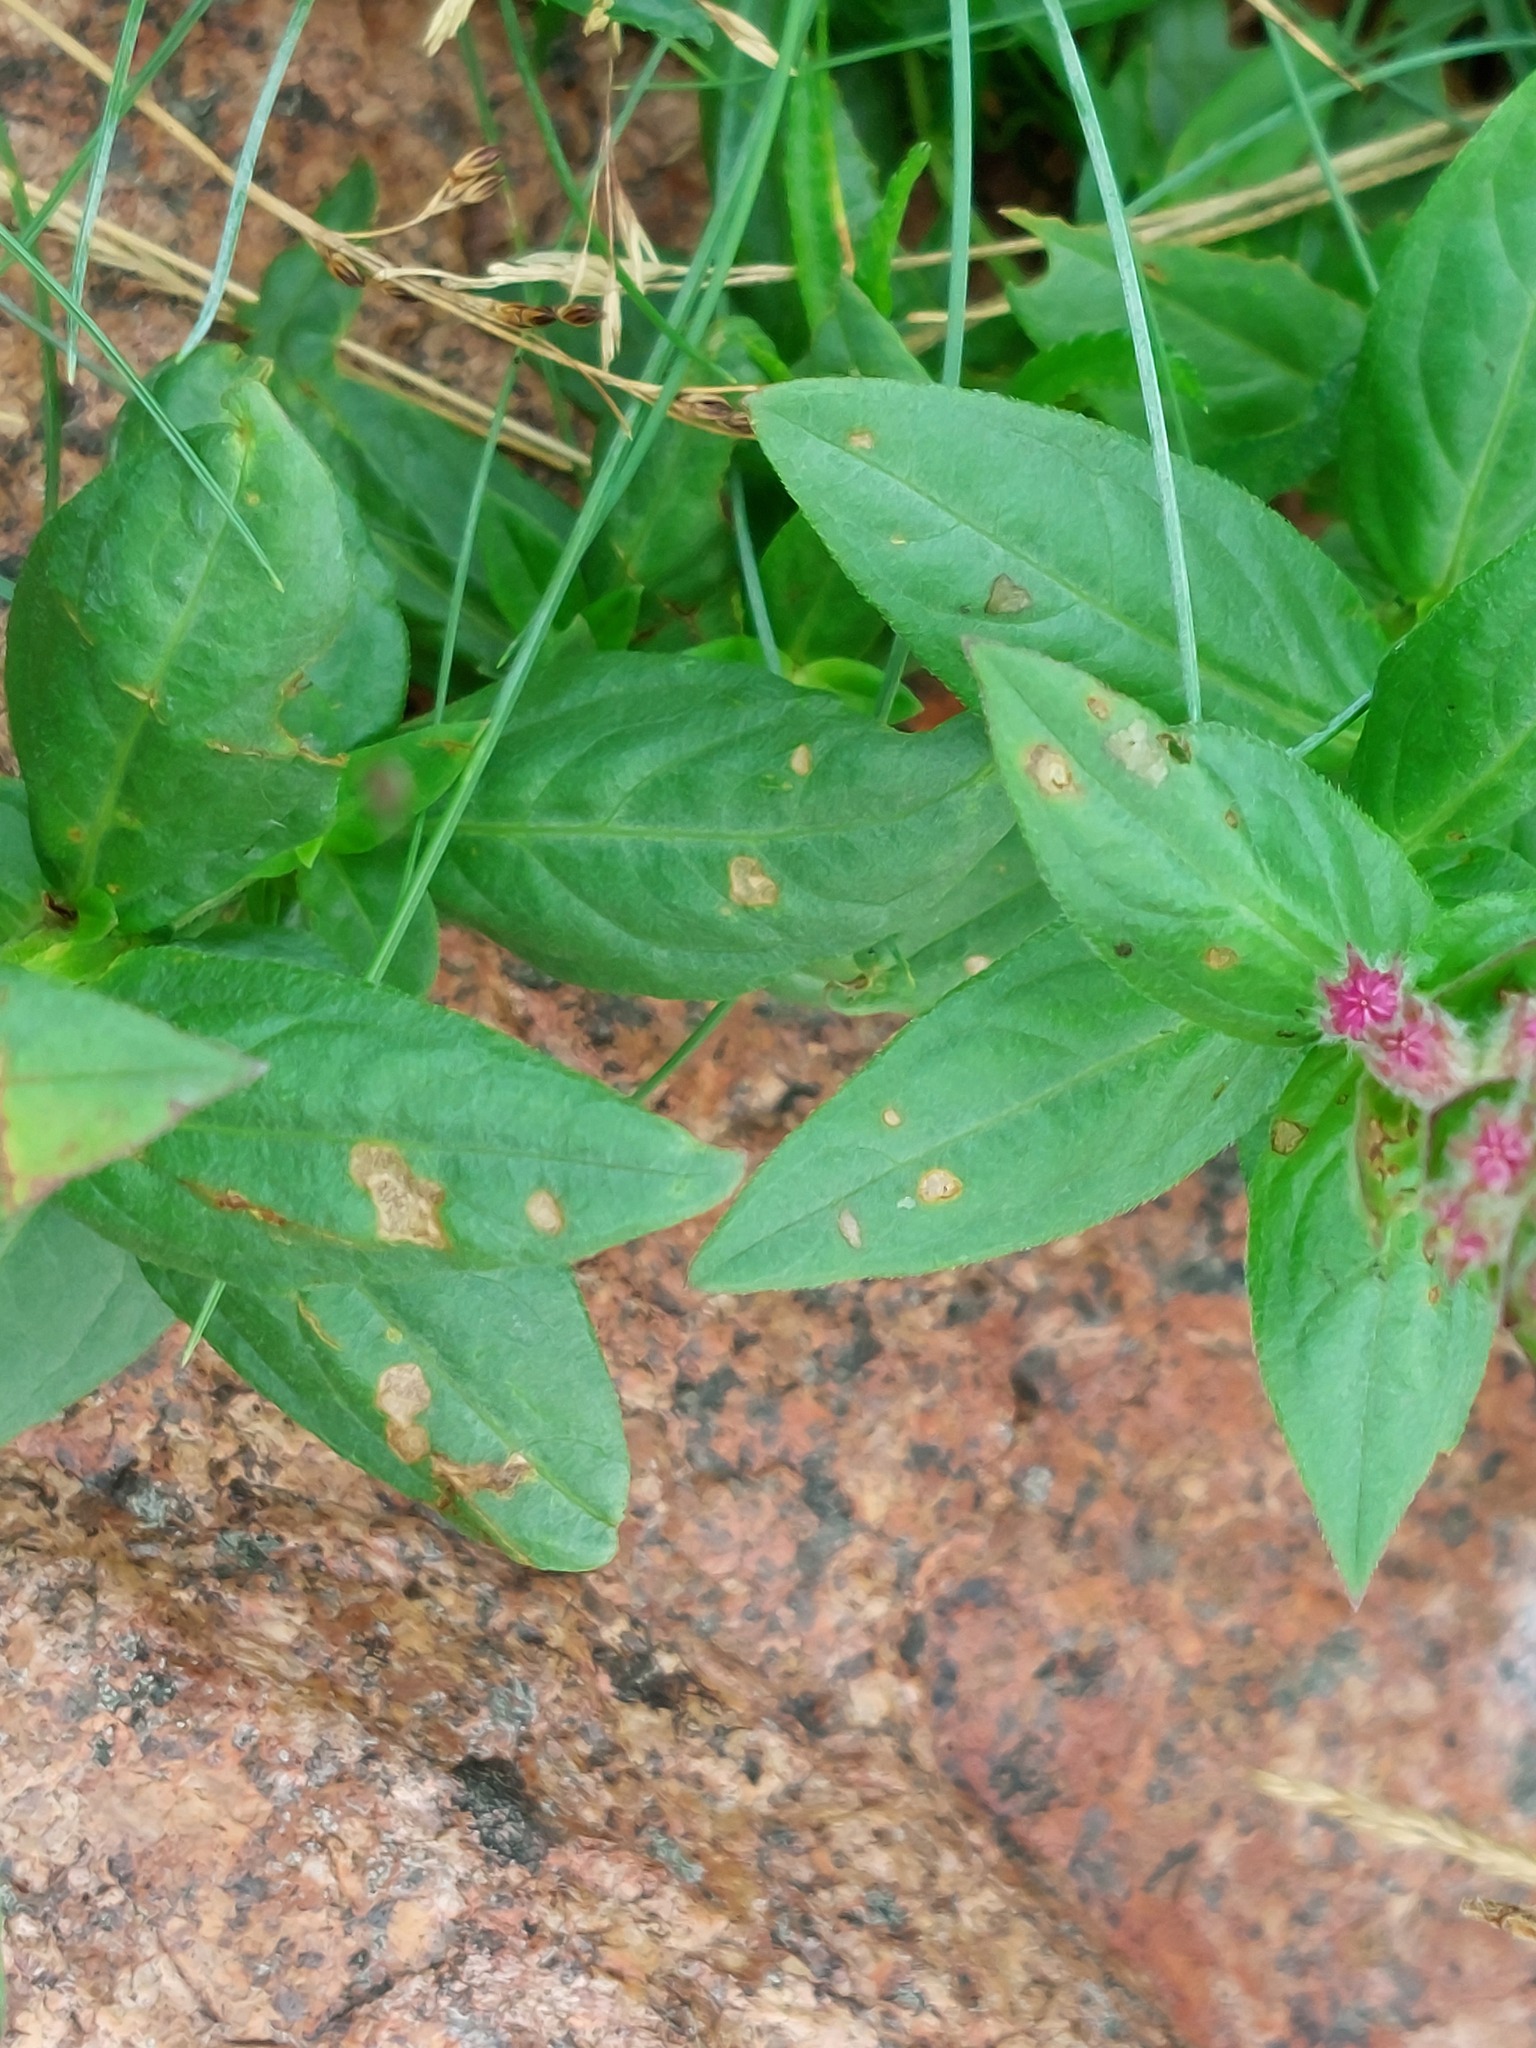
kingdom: Plantae
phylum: Tracheophyta
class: Magnoliopsida
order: Myrtales
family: Lythraceae
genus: Lythrum
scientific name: Lythrum salicaria
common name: Purple loosestrife
